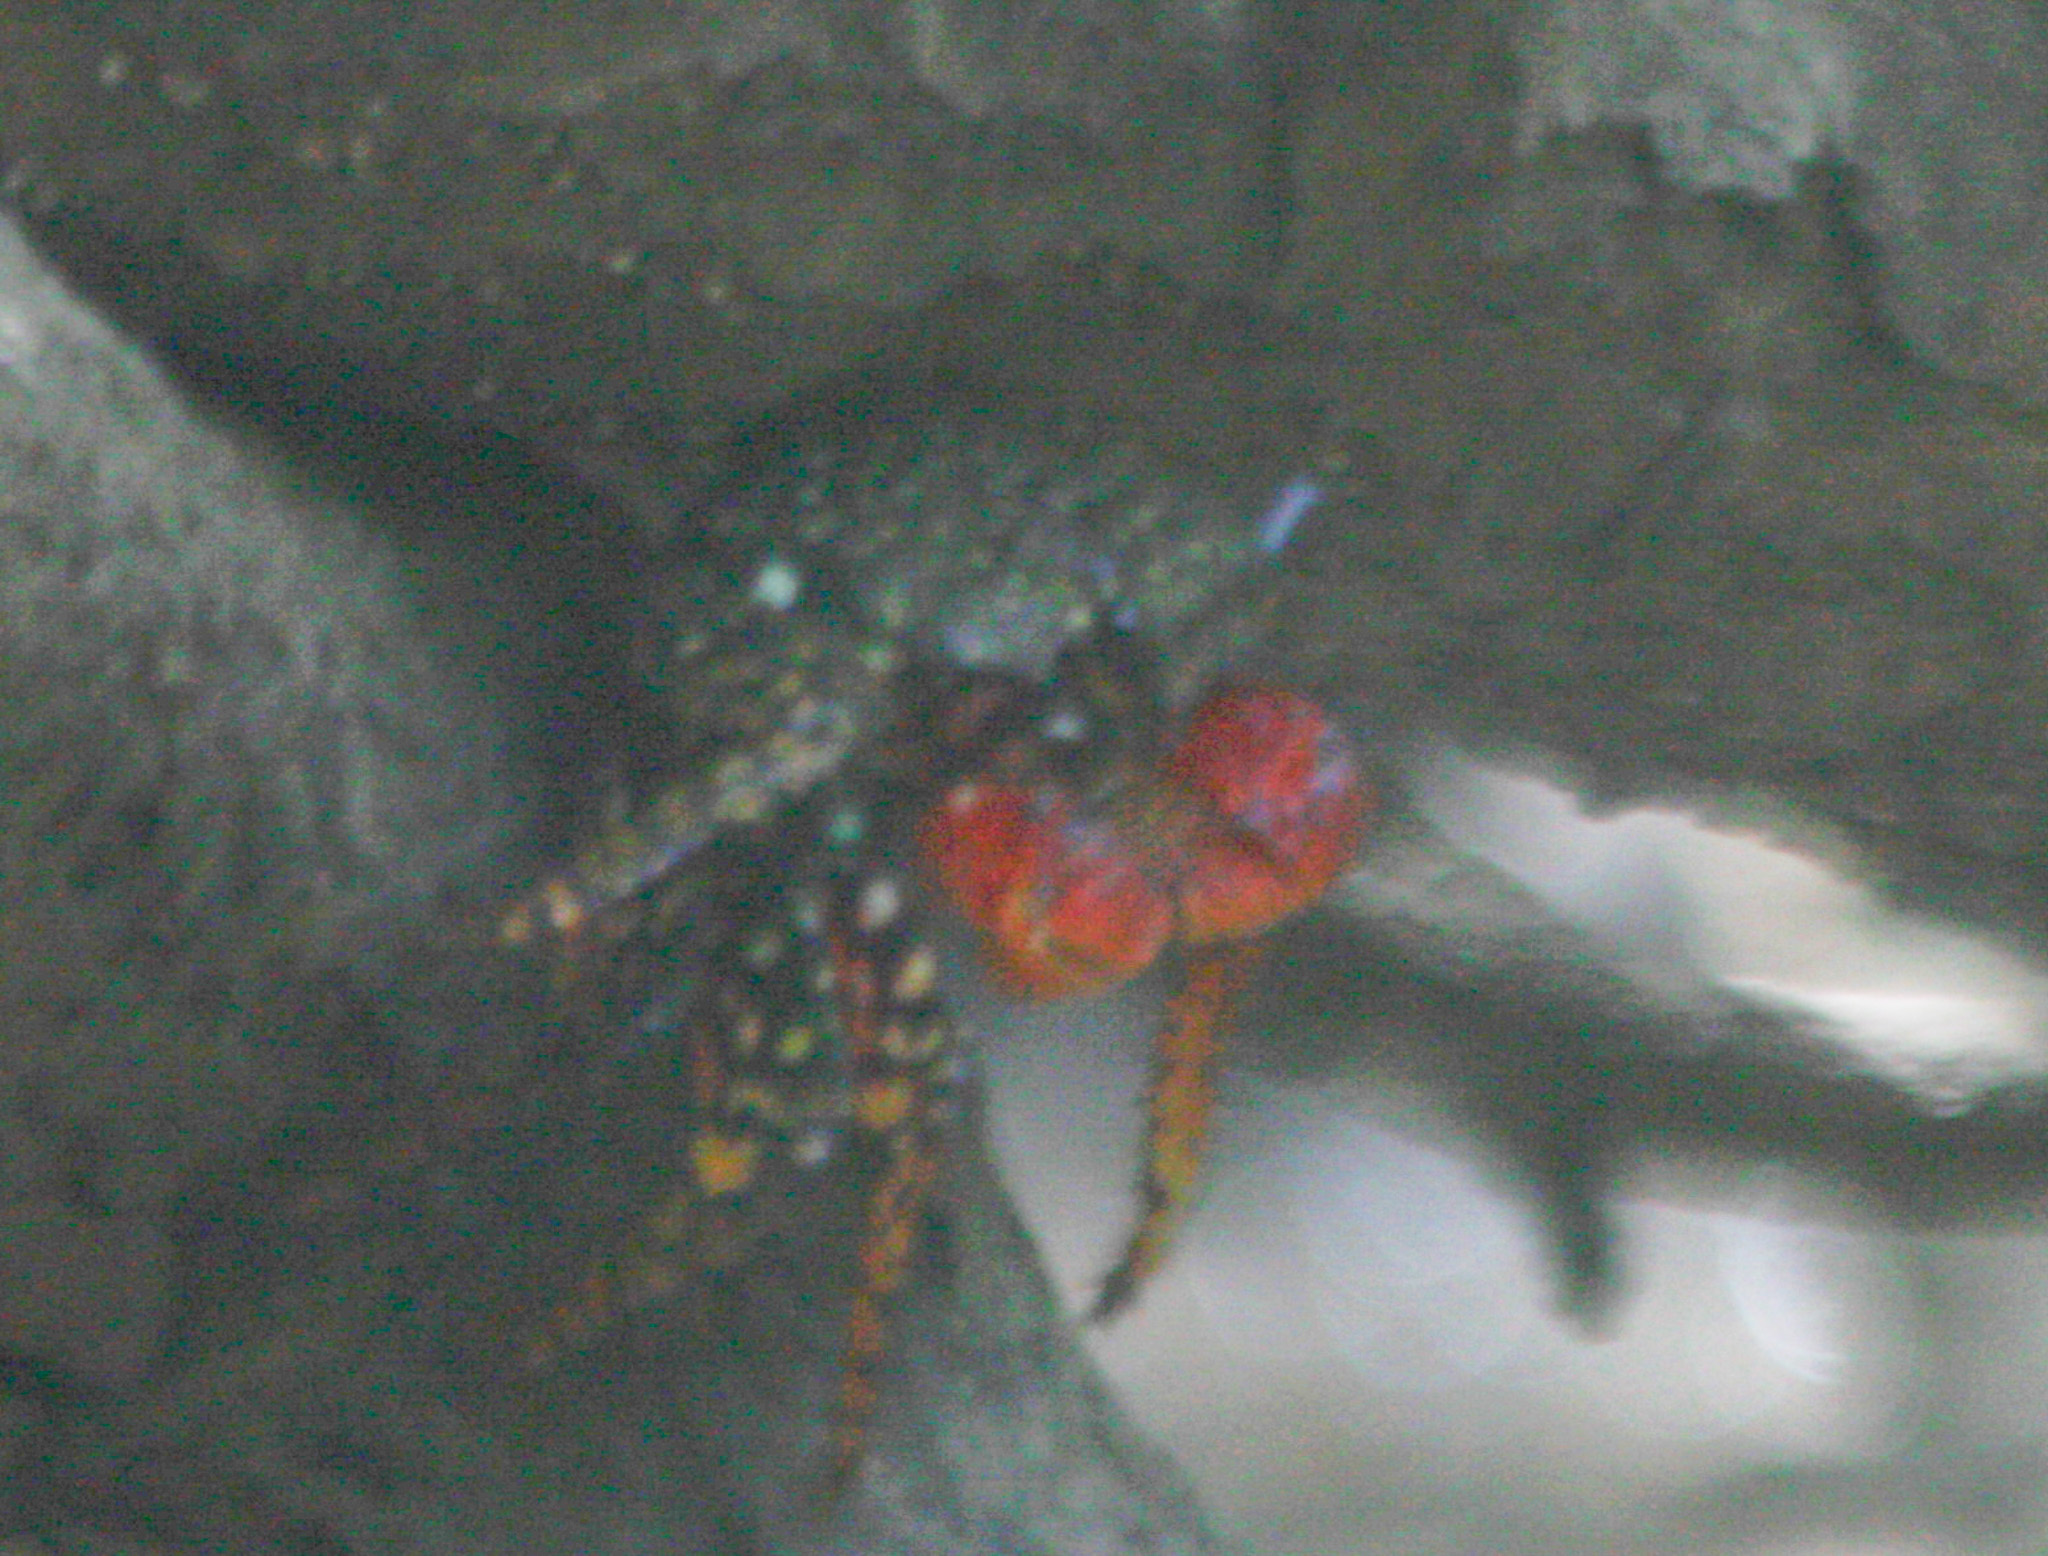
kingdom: Animalia
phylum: Arthropoda
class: Malacostraca
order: Decapoda
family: Grapsidae
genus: Goniopsis
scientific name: Goniopsis pulchra
